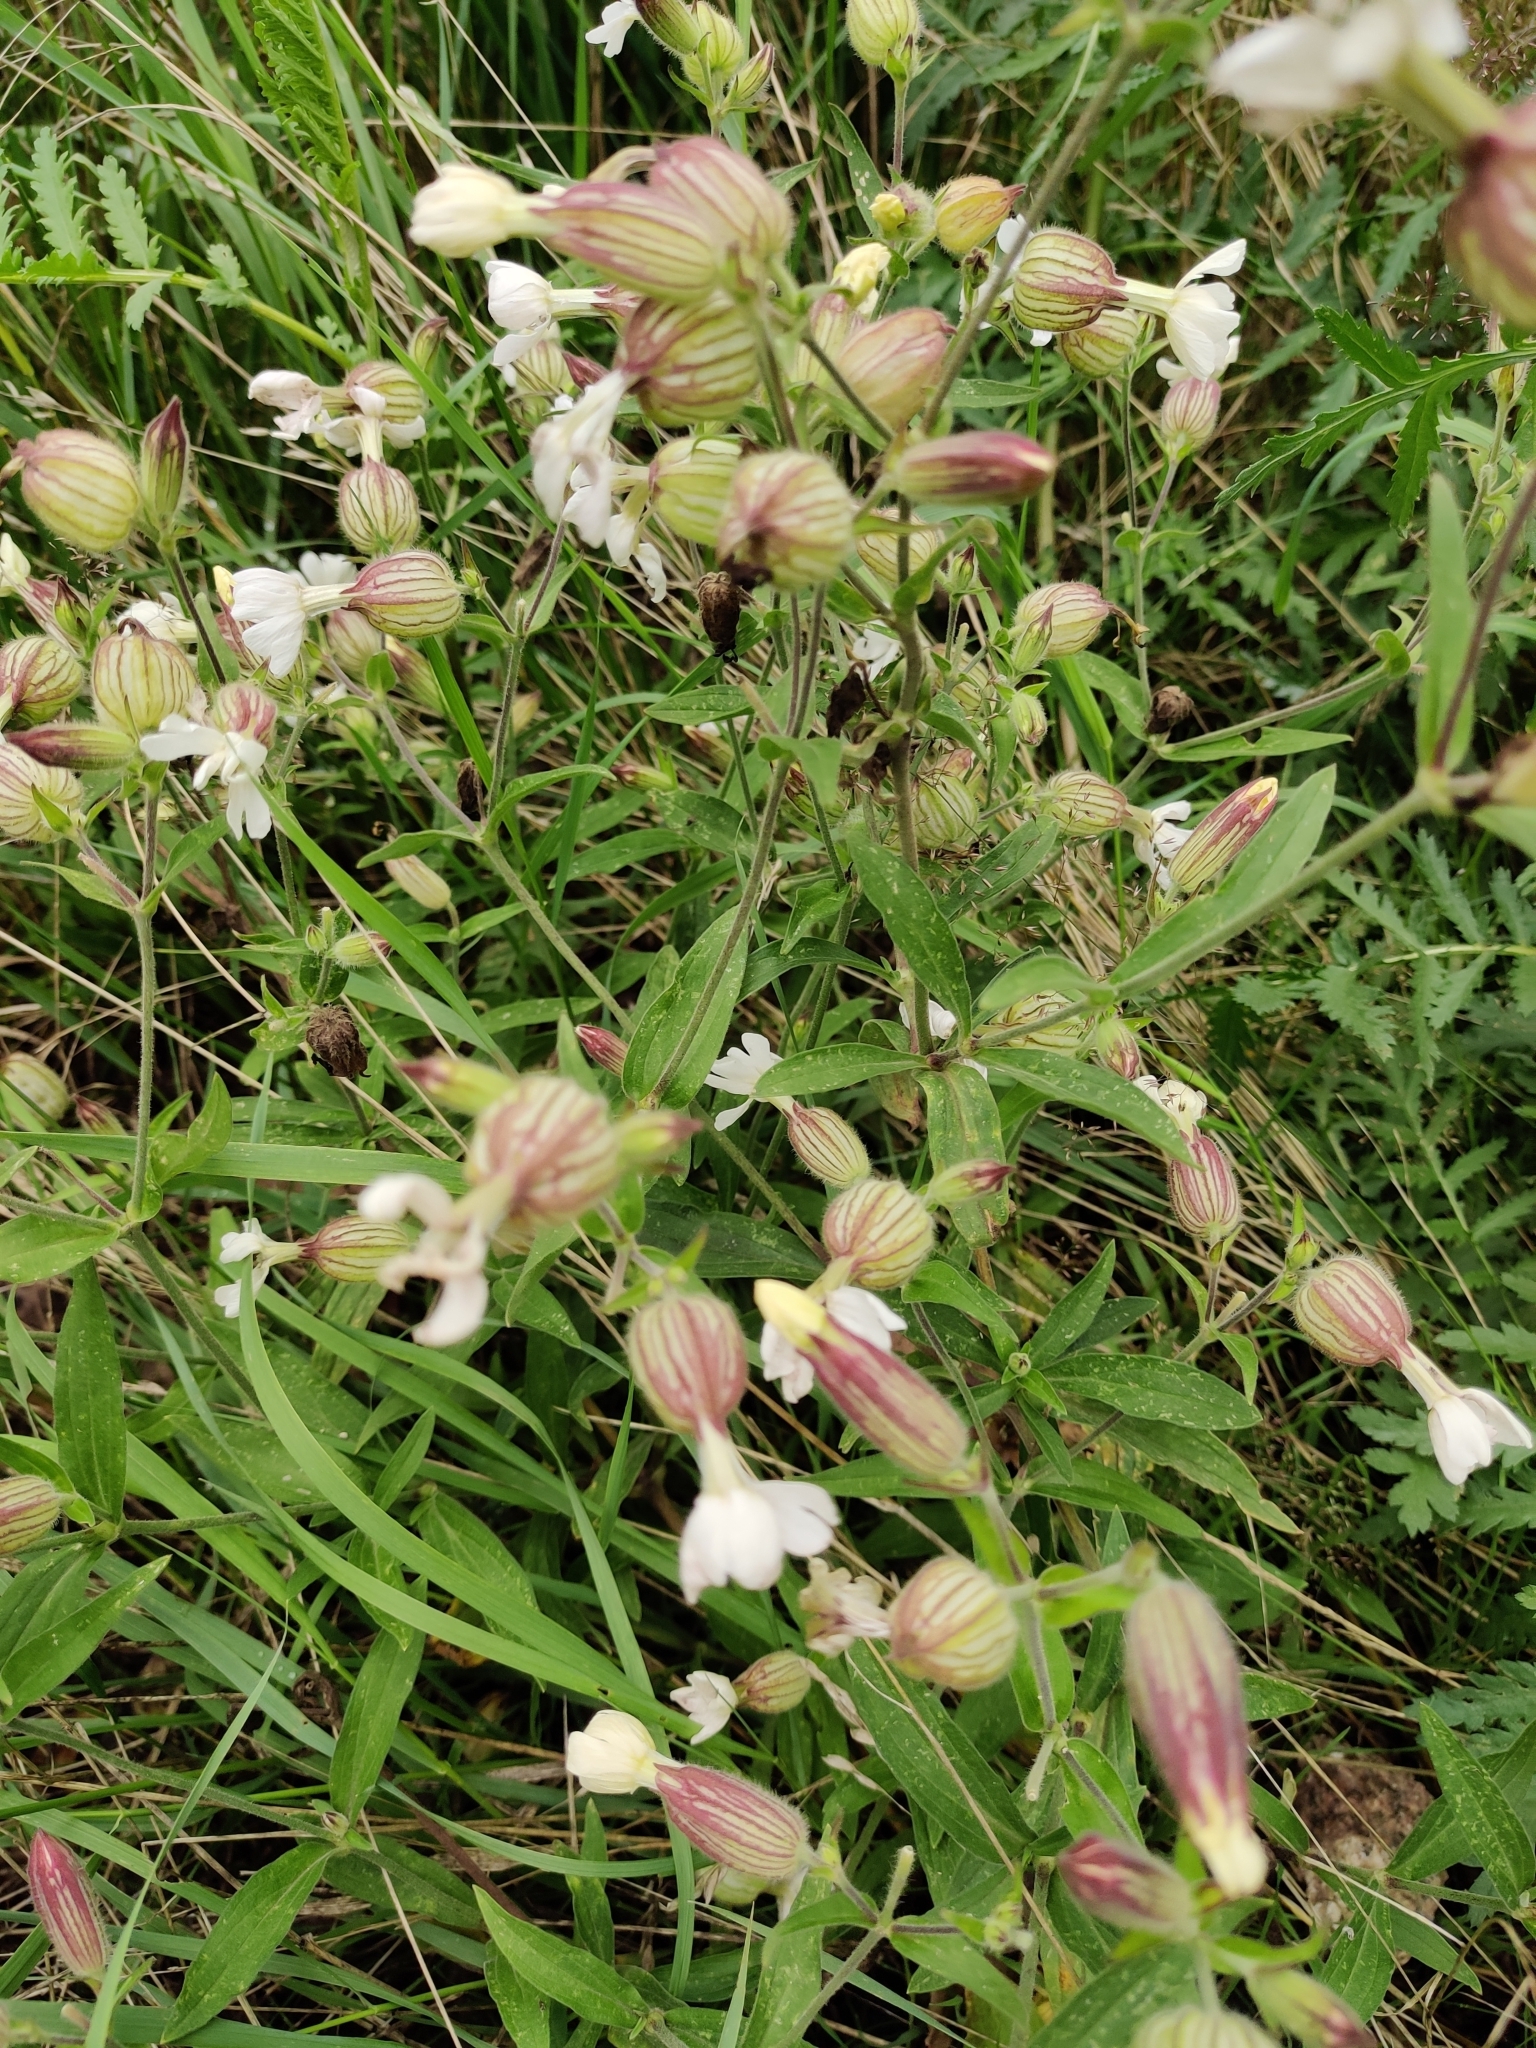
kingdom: Plantae
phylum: Tracheophyta
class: Magnoliopsida
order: Caryophyllales
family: Caryophyllaceae
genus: Silene
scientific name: Silene vulgaris
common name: Bladder campion
